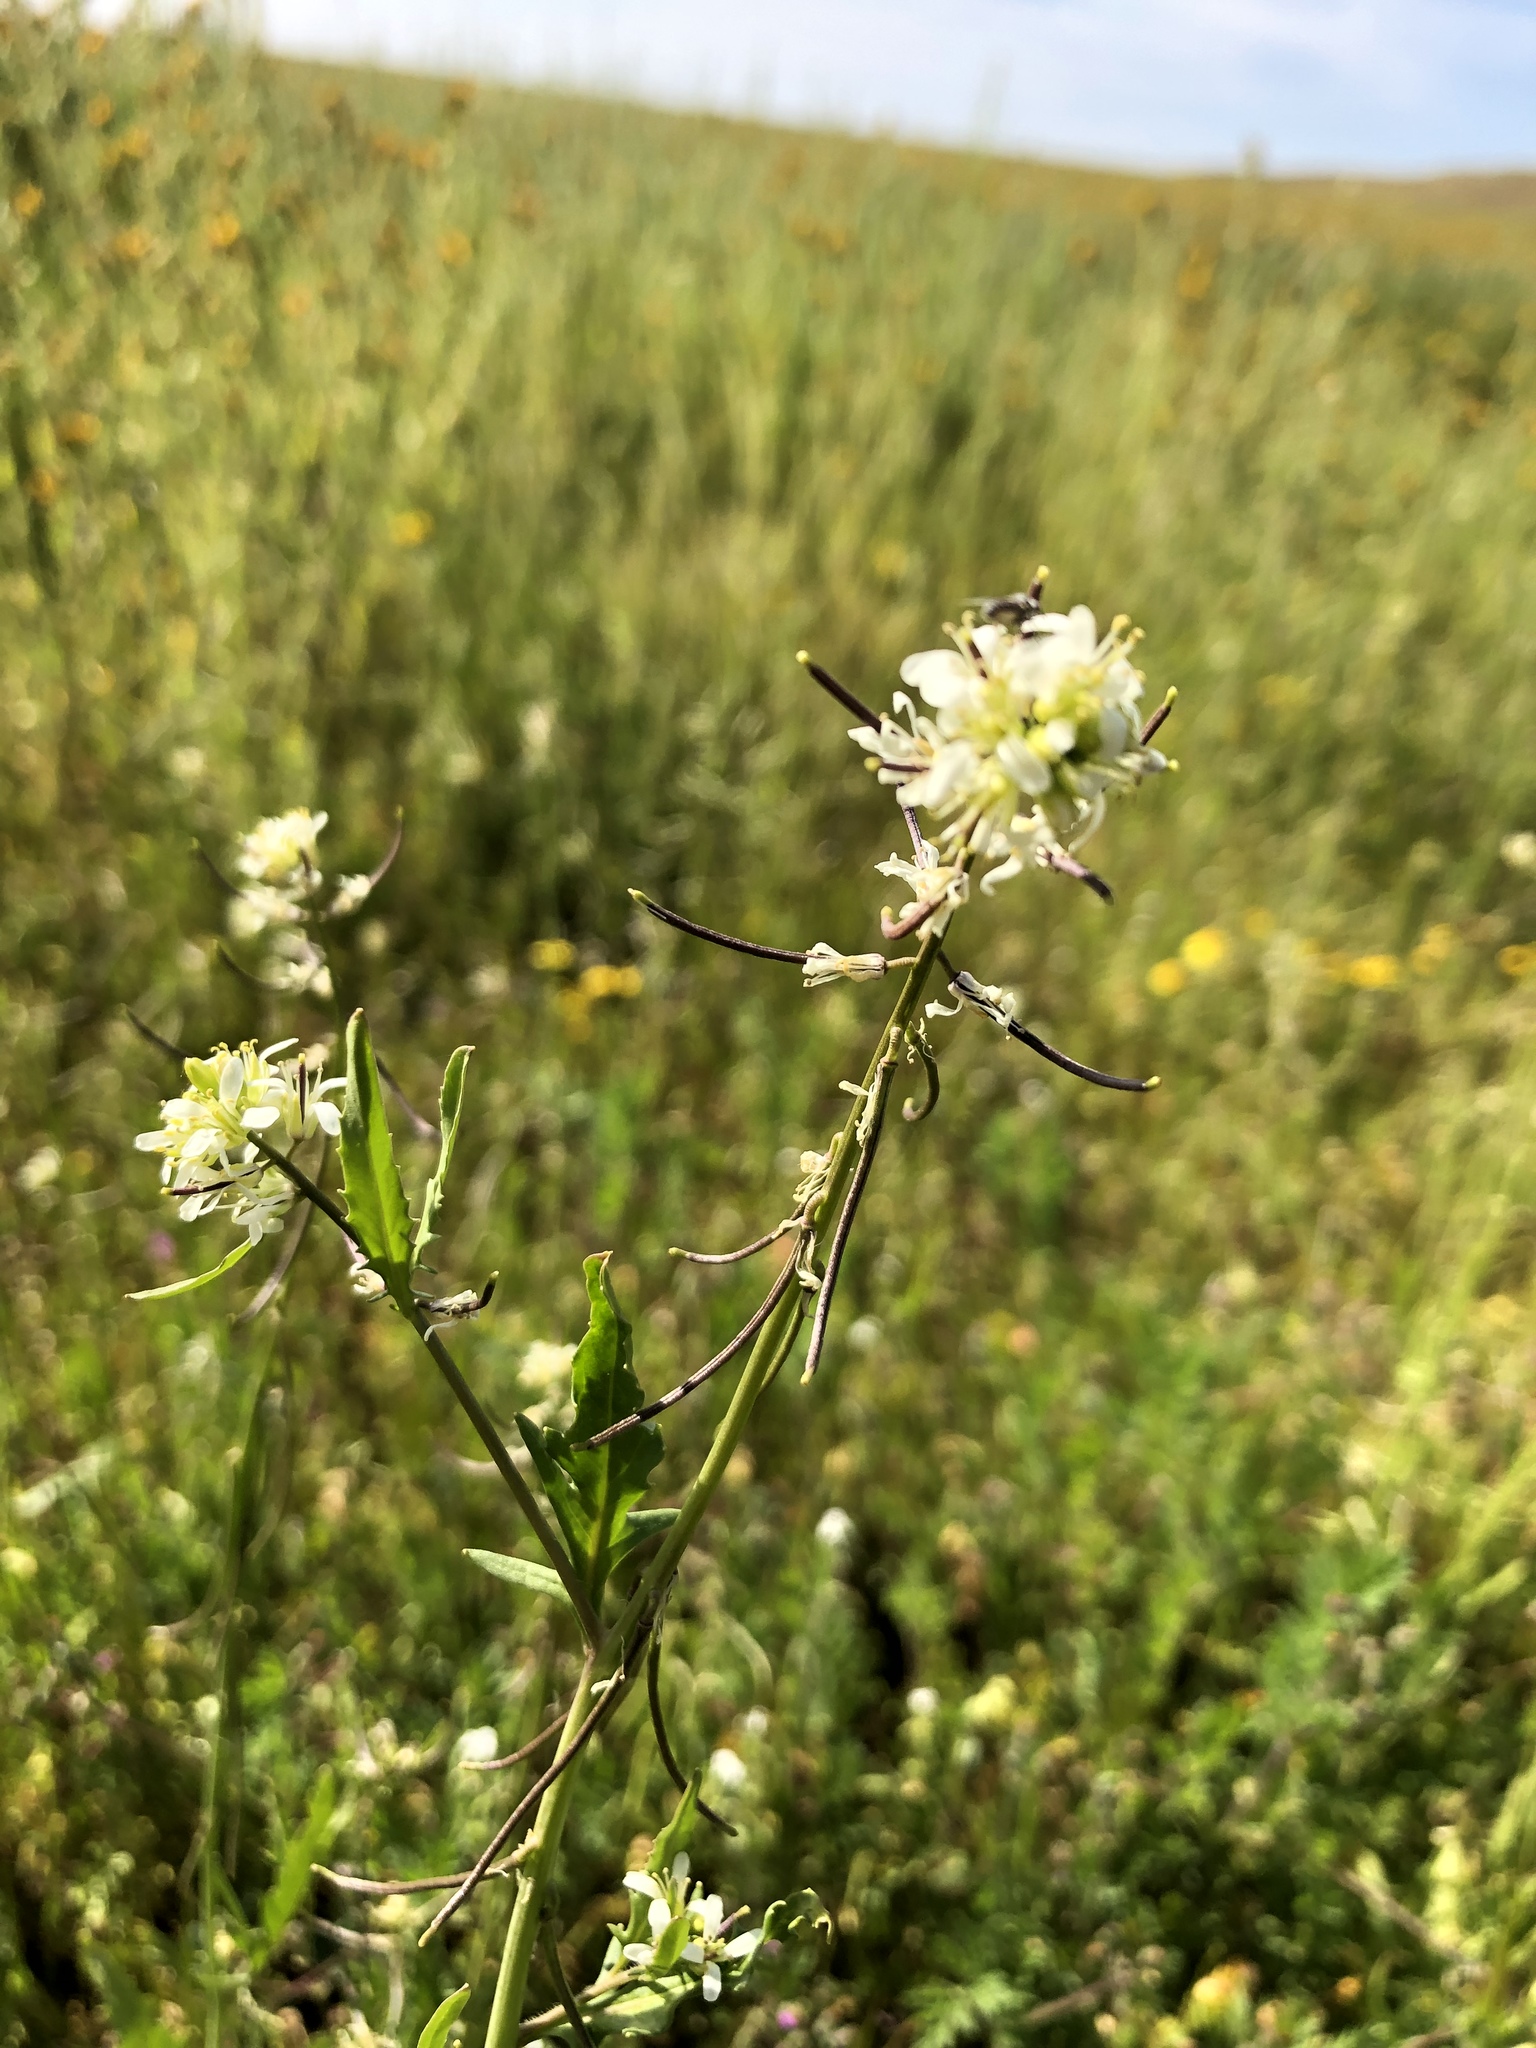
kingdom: Plantae
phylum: Tracheophyta
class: Magnoliopsida
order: Brassicales
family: Brassicaceae
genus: Streptanthus
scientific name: Streptanthus lasiophyllus
